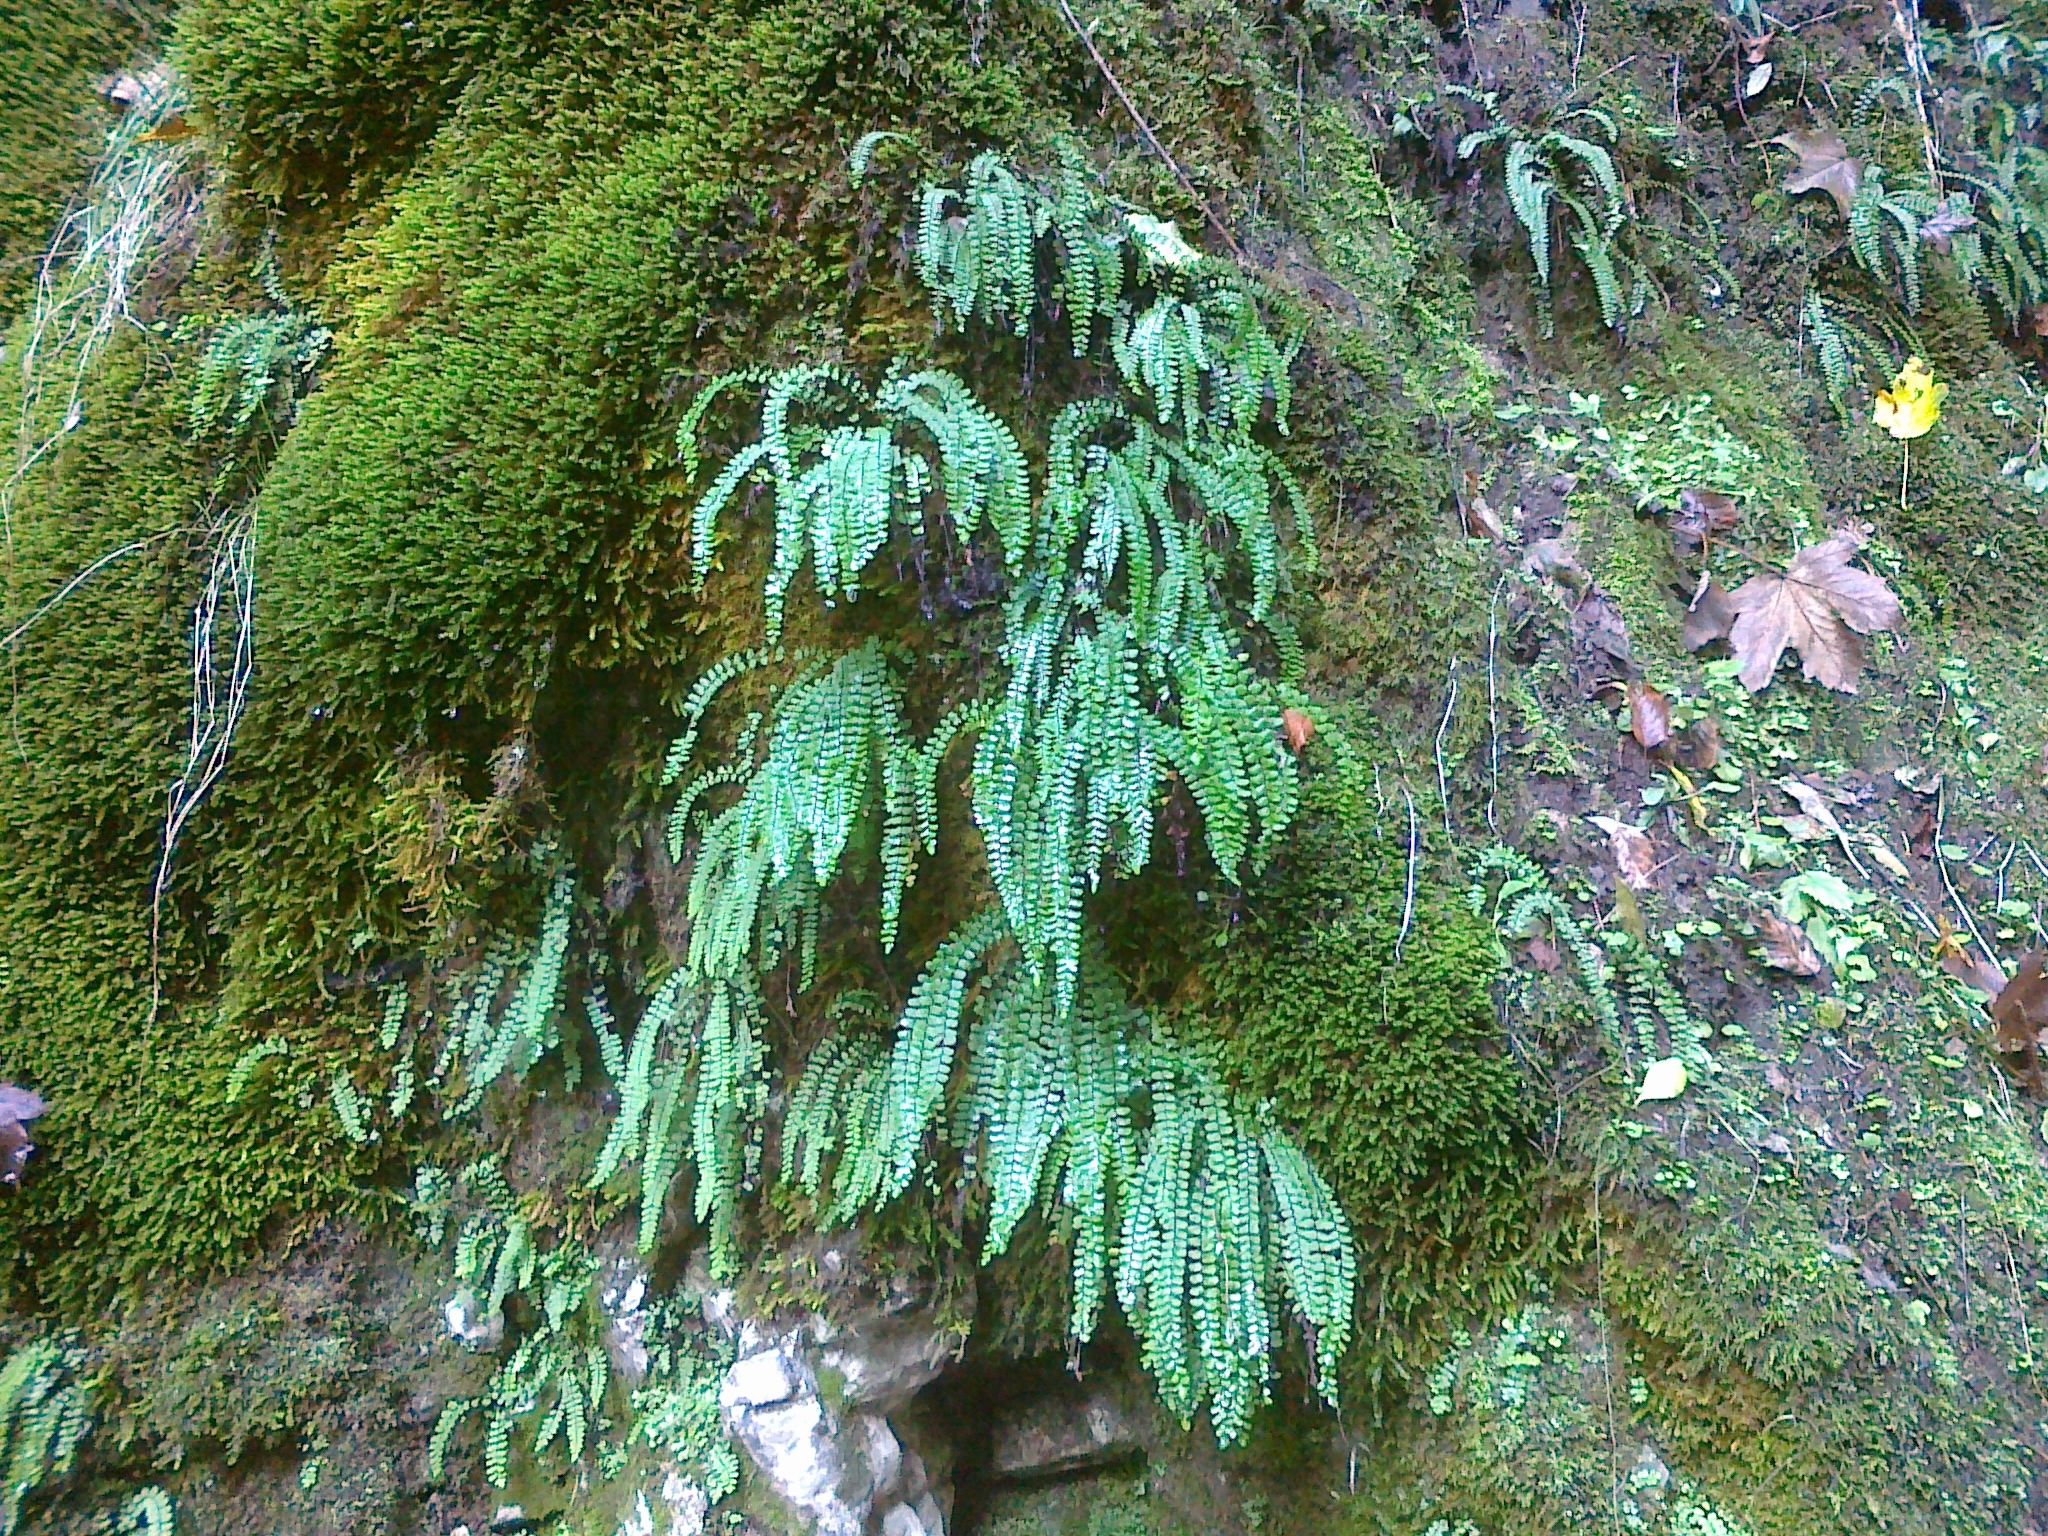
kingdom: Plantae
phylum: Tracheophyta
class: Polypodiopsida
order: Polypodiales
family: Aspleniaceae
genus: Asplenium
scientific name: Asplenium trichomanes
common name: Maidenhair spleenwort
